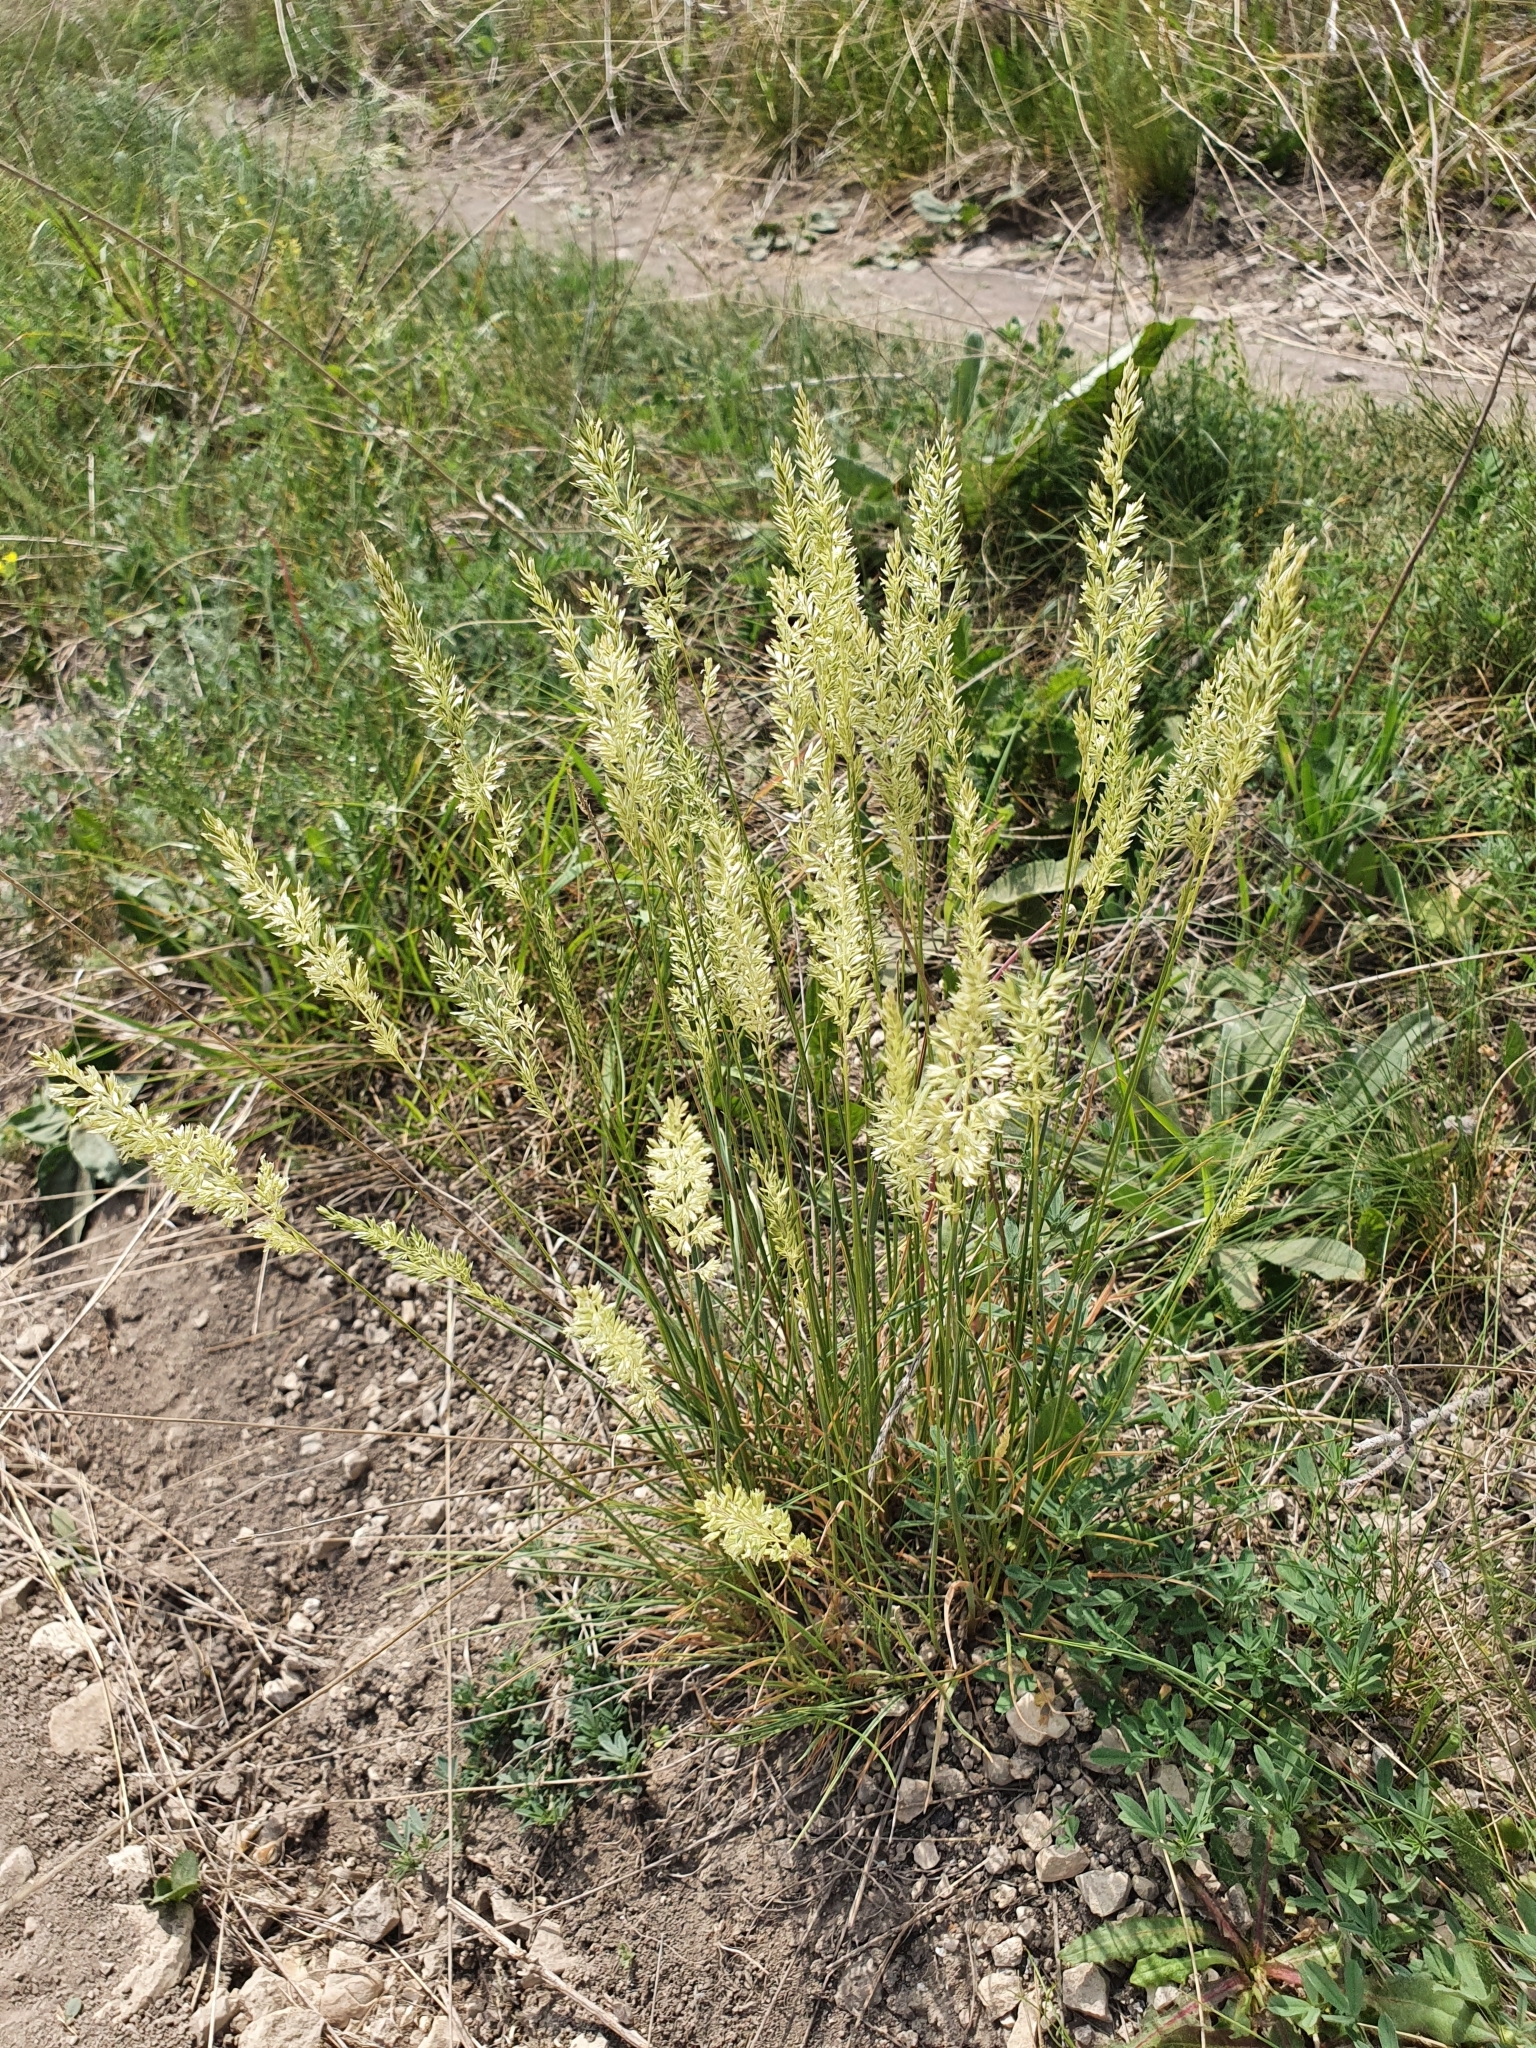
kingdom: Plantae
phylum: Tracheophyta
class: Liliopsida
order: Poales
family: Poaceae
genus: Koeleria
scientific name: Koeleria macrantha
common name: Crested hair-grass
